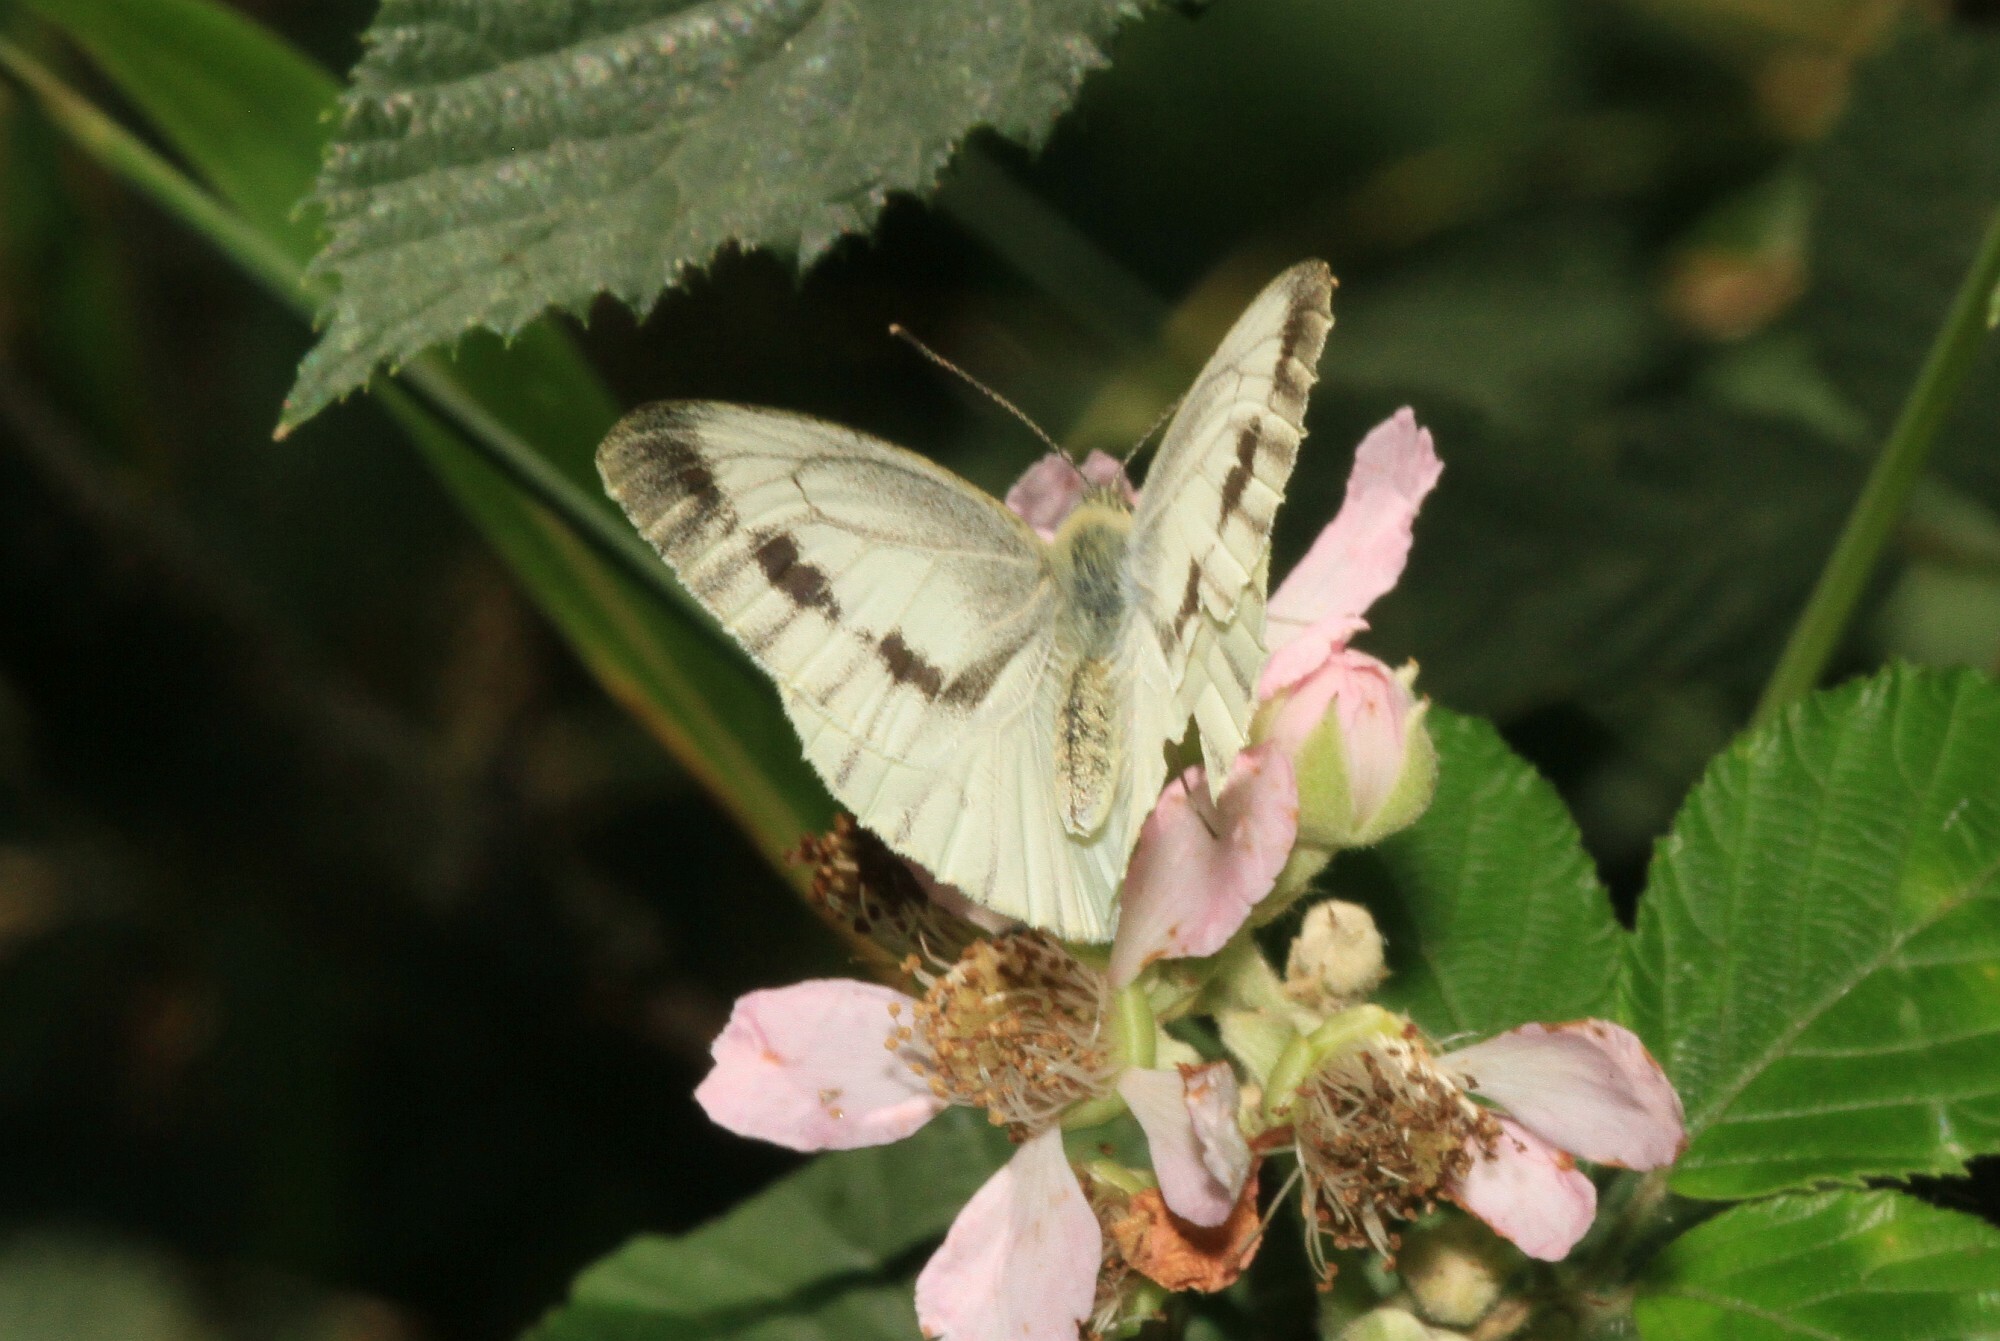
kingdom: Animalia
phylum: Arthropoda
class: Insecta
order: Lepidoptera
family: Pieridae
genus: Pieris
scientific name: Pieris napi
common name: Green-veined white
